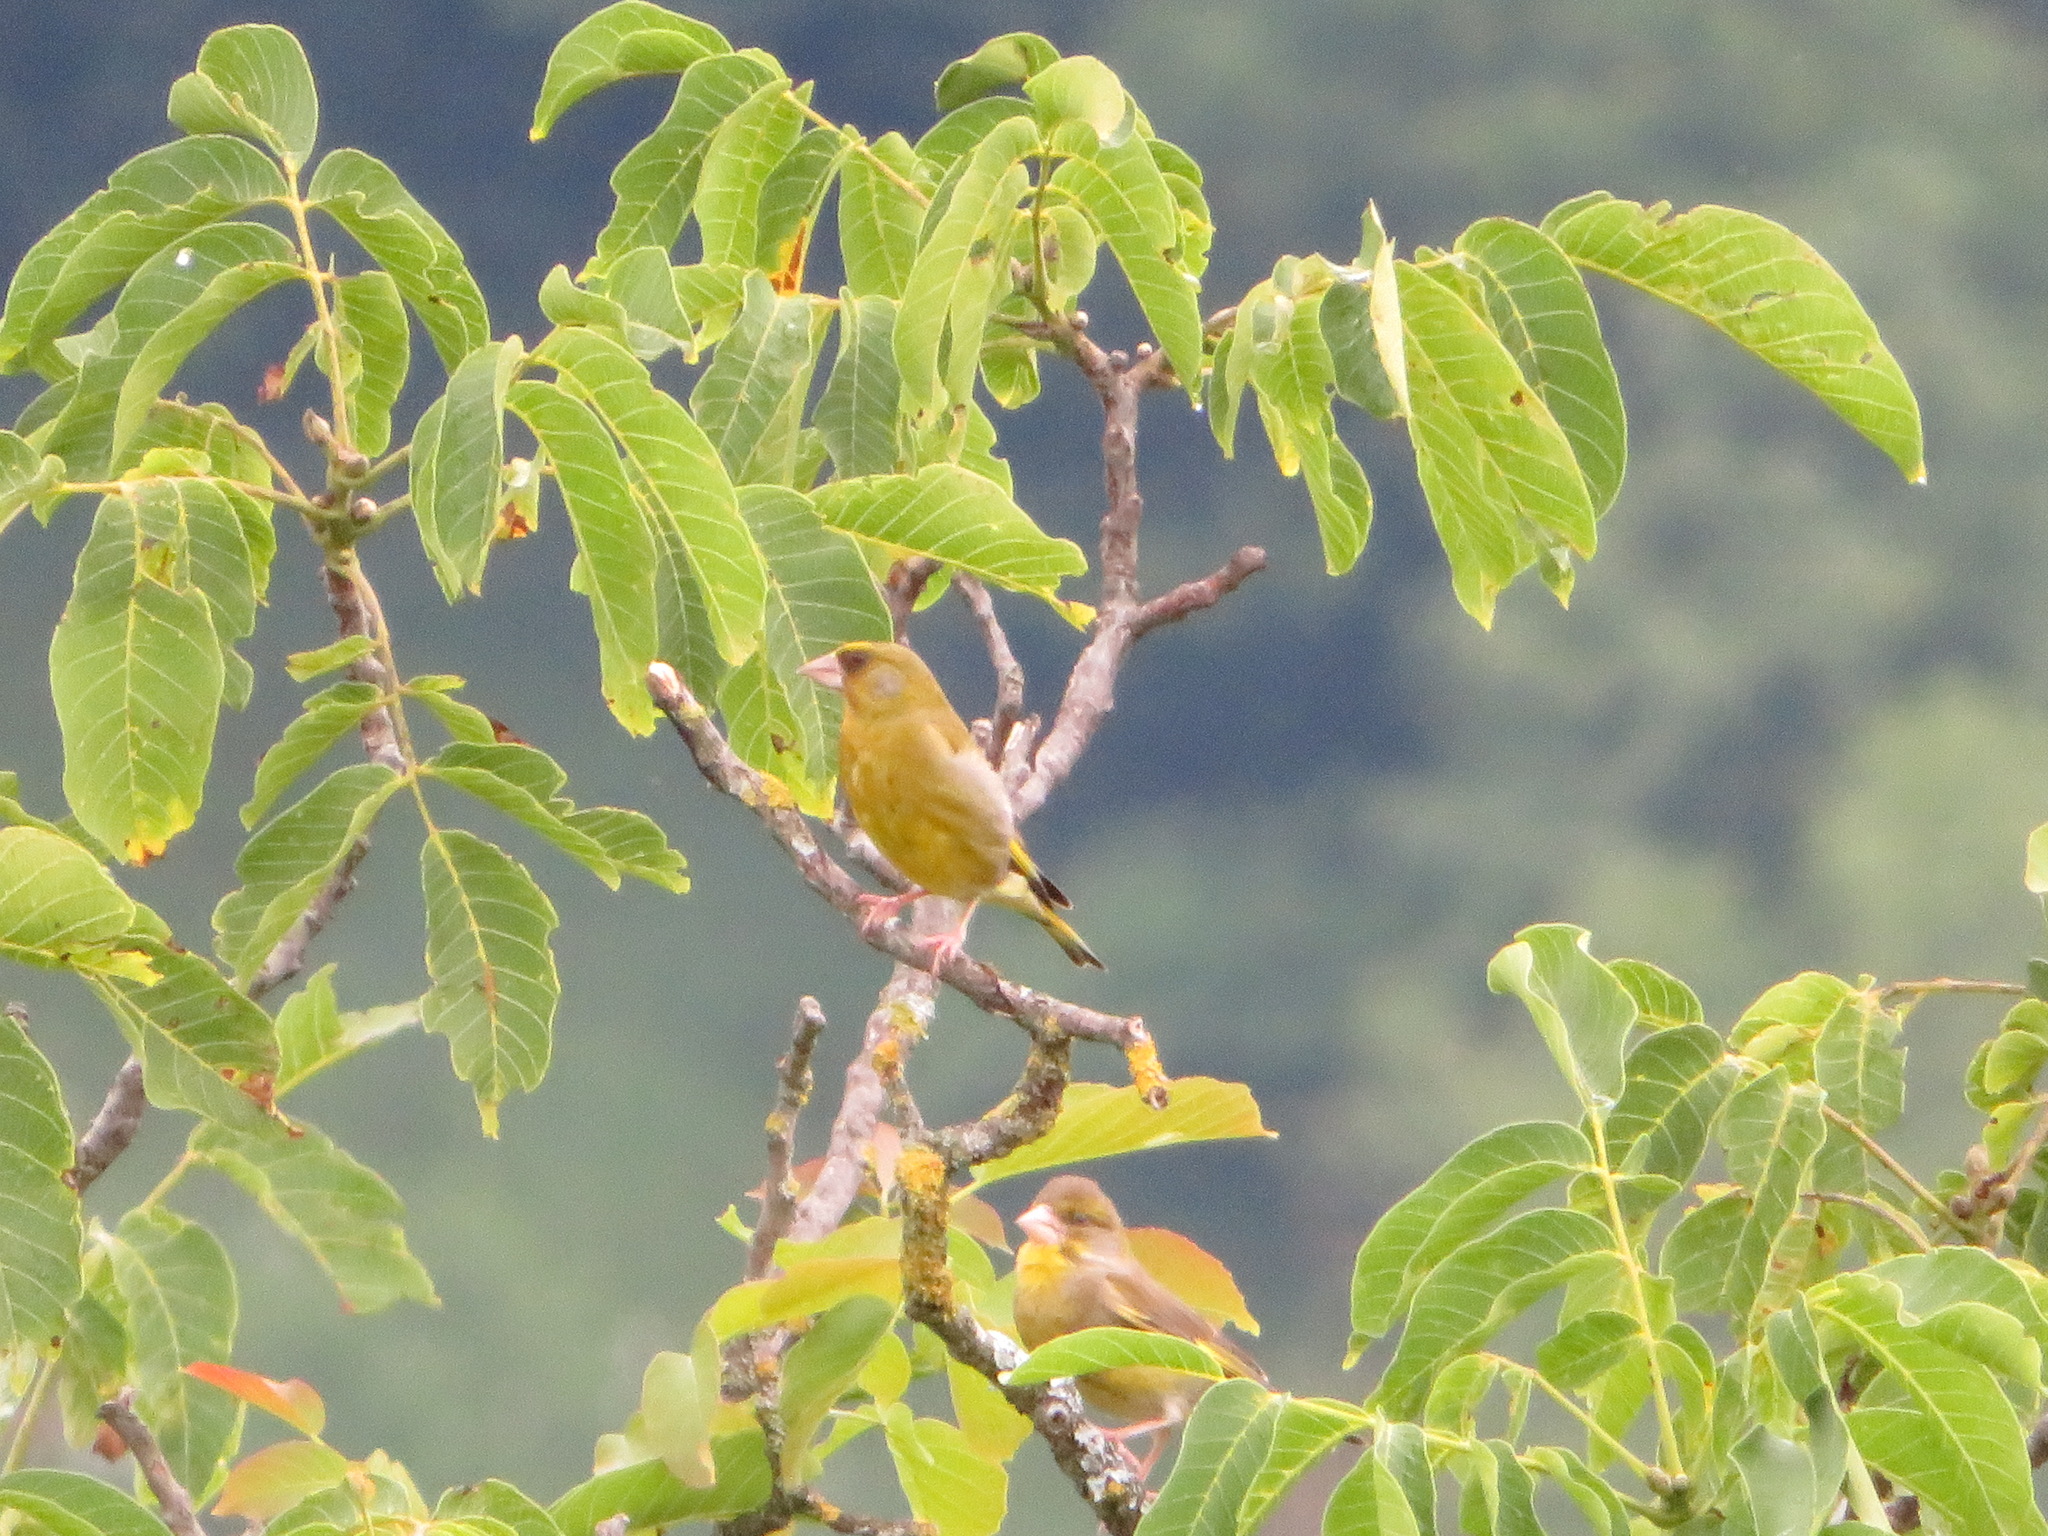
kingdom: Plantae
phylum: Tracheophyta
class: Liliopsida
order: Poales
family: Poaceae
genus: Chloris
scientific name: Chloris chloris
